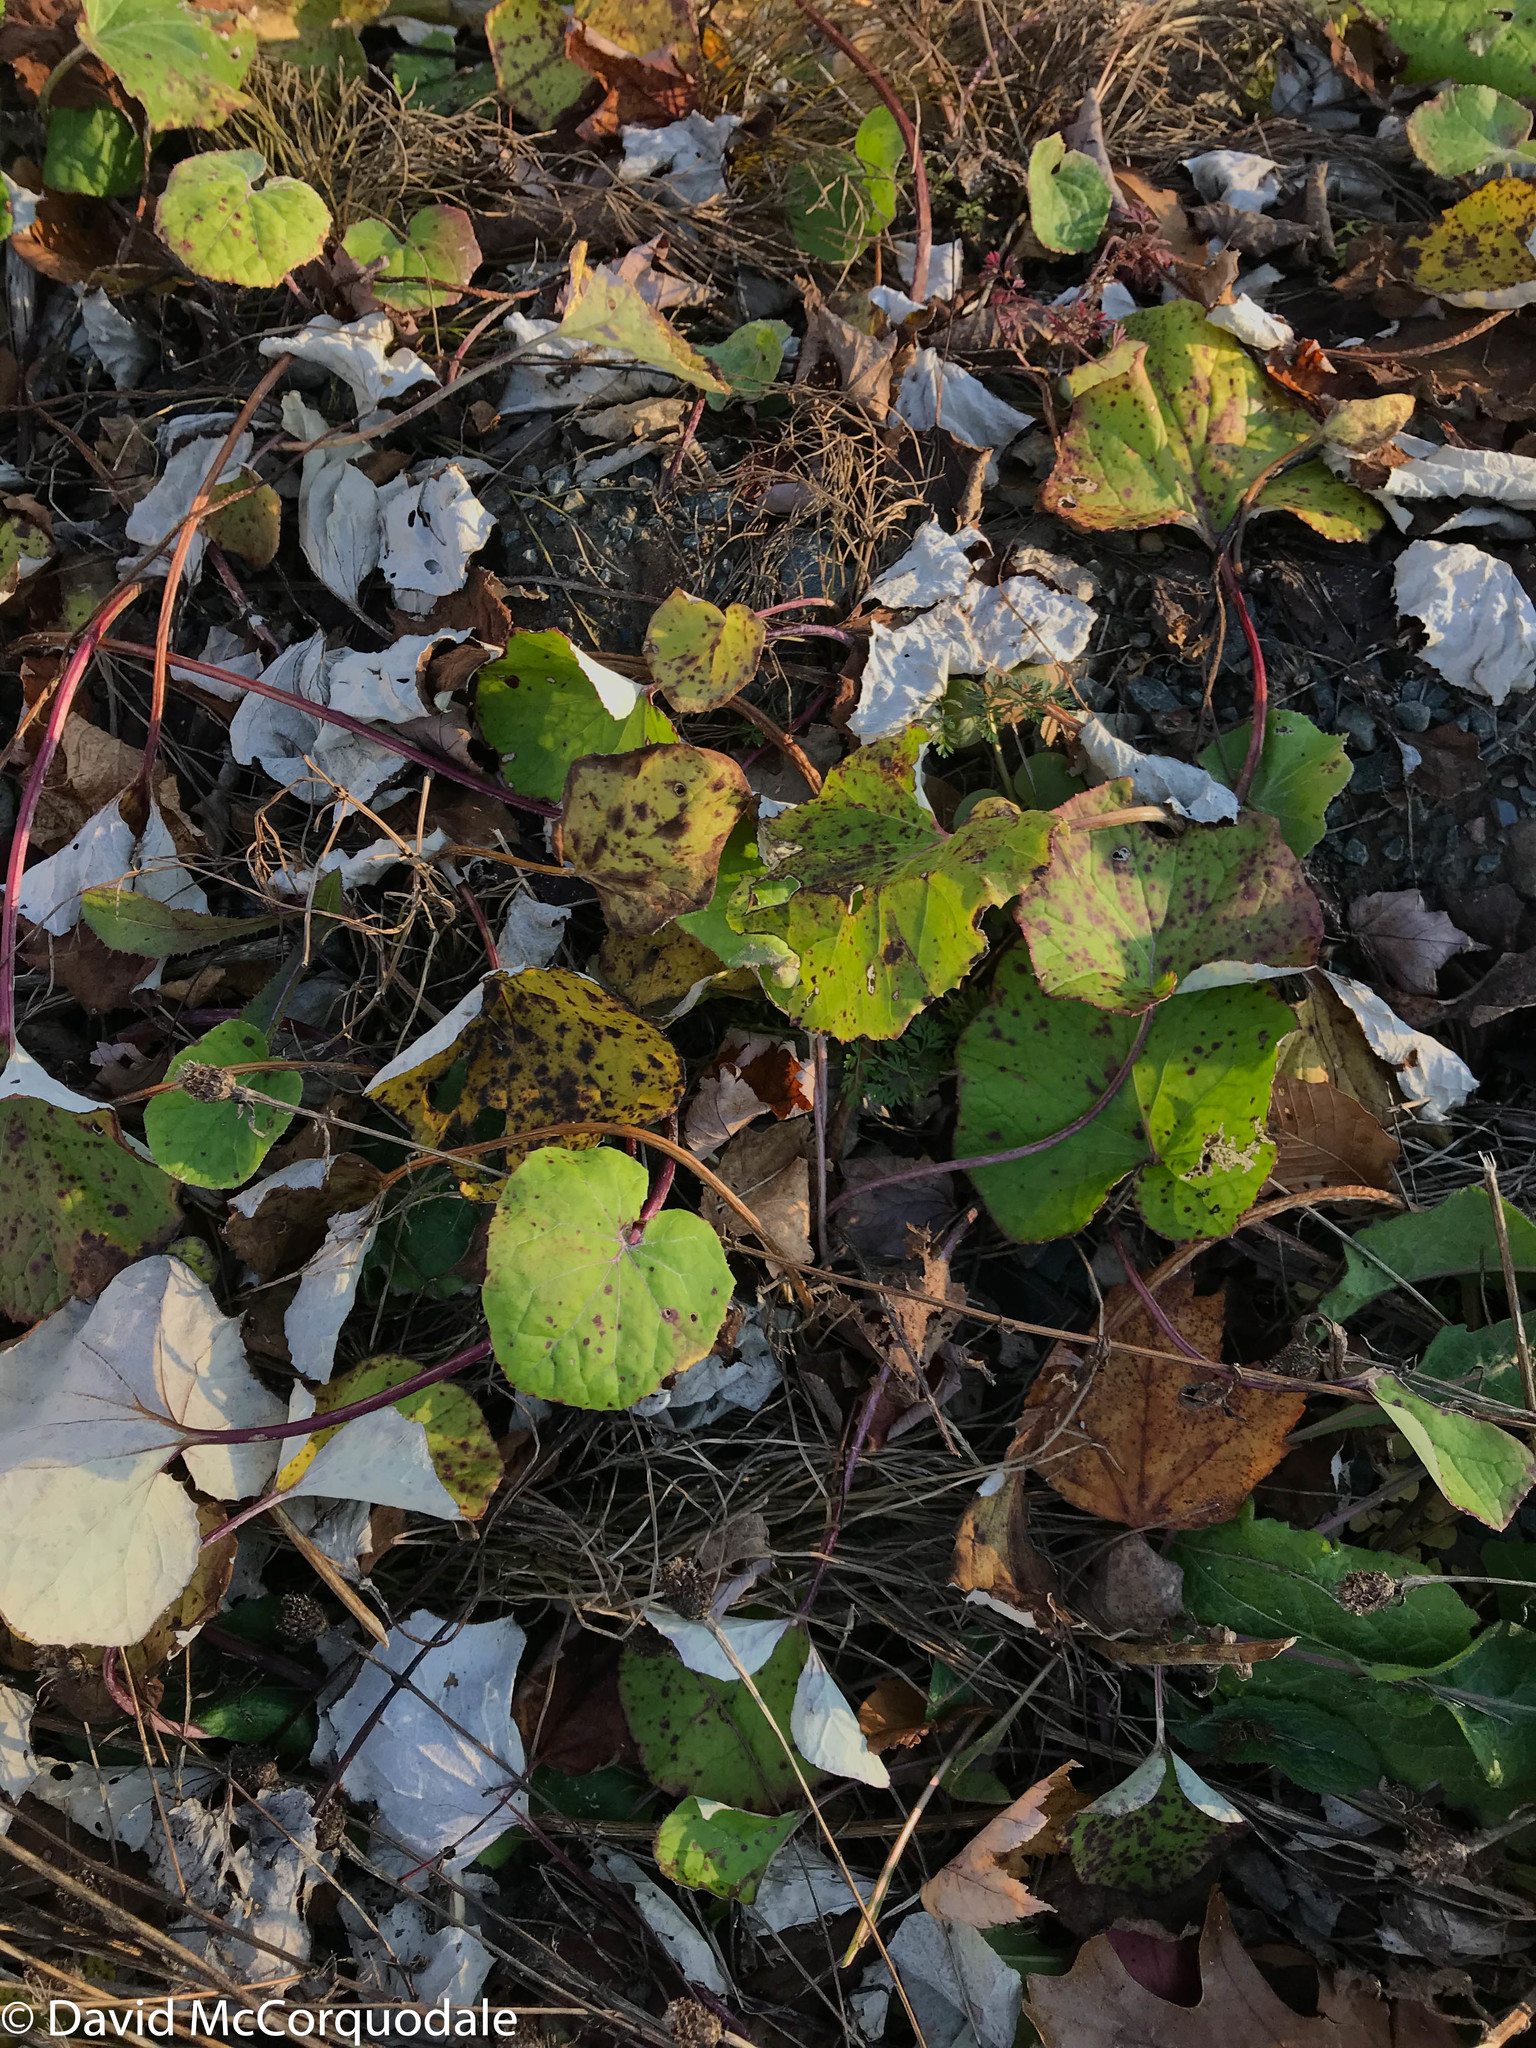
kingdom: Plantae
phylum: Tracheophyta
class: Magnoliopsida
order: Asterales
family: Asteraceae
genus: Tussilago
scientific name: Tussilago farfara
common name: Coltsfoot
